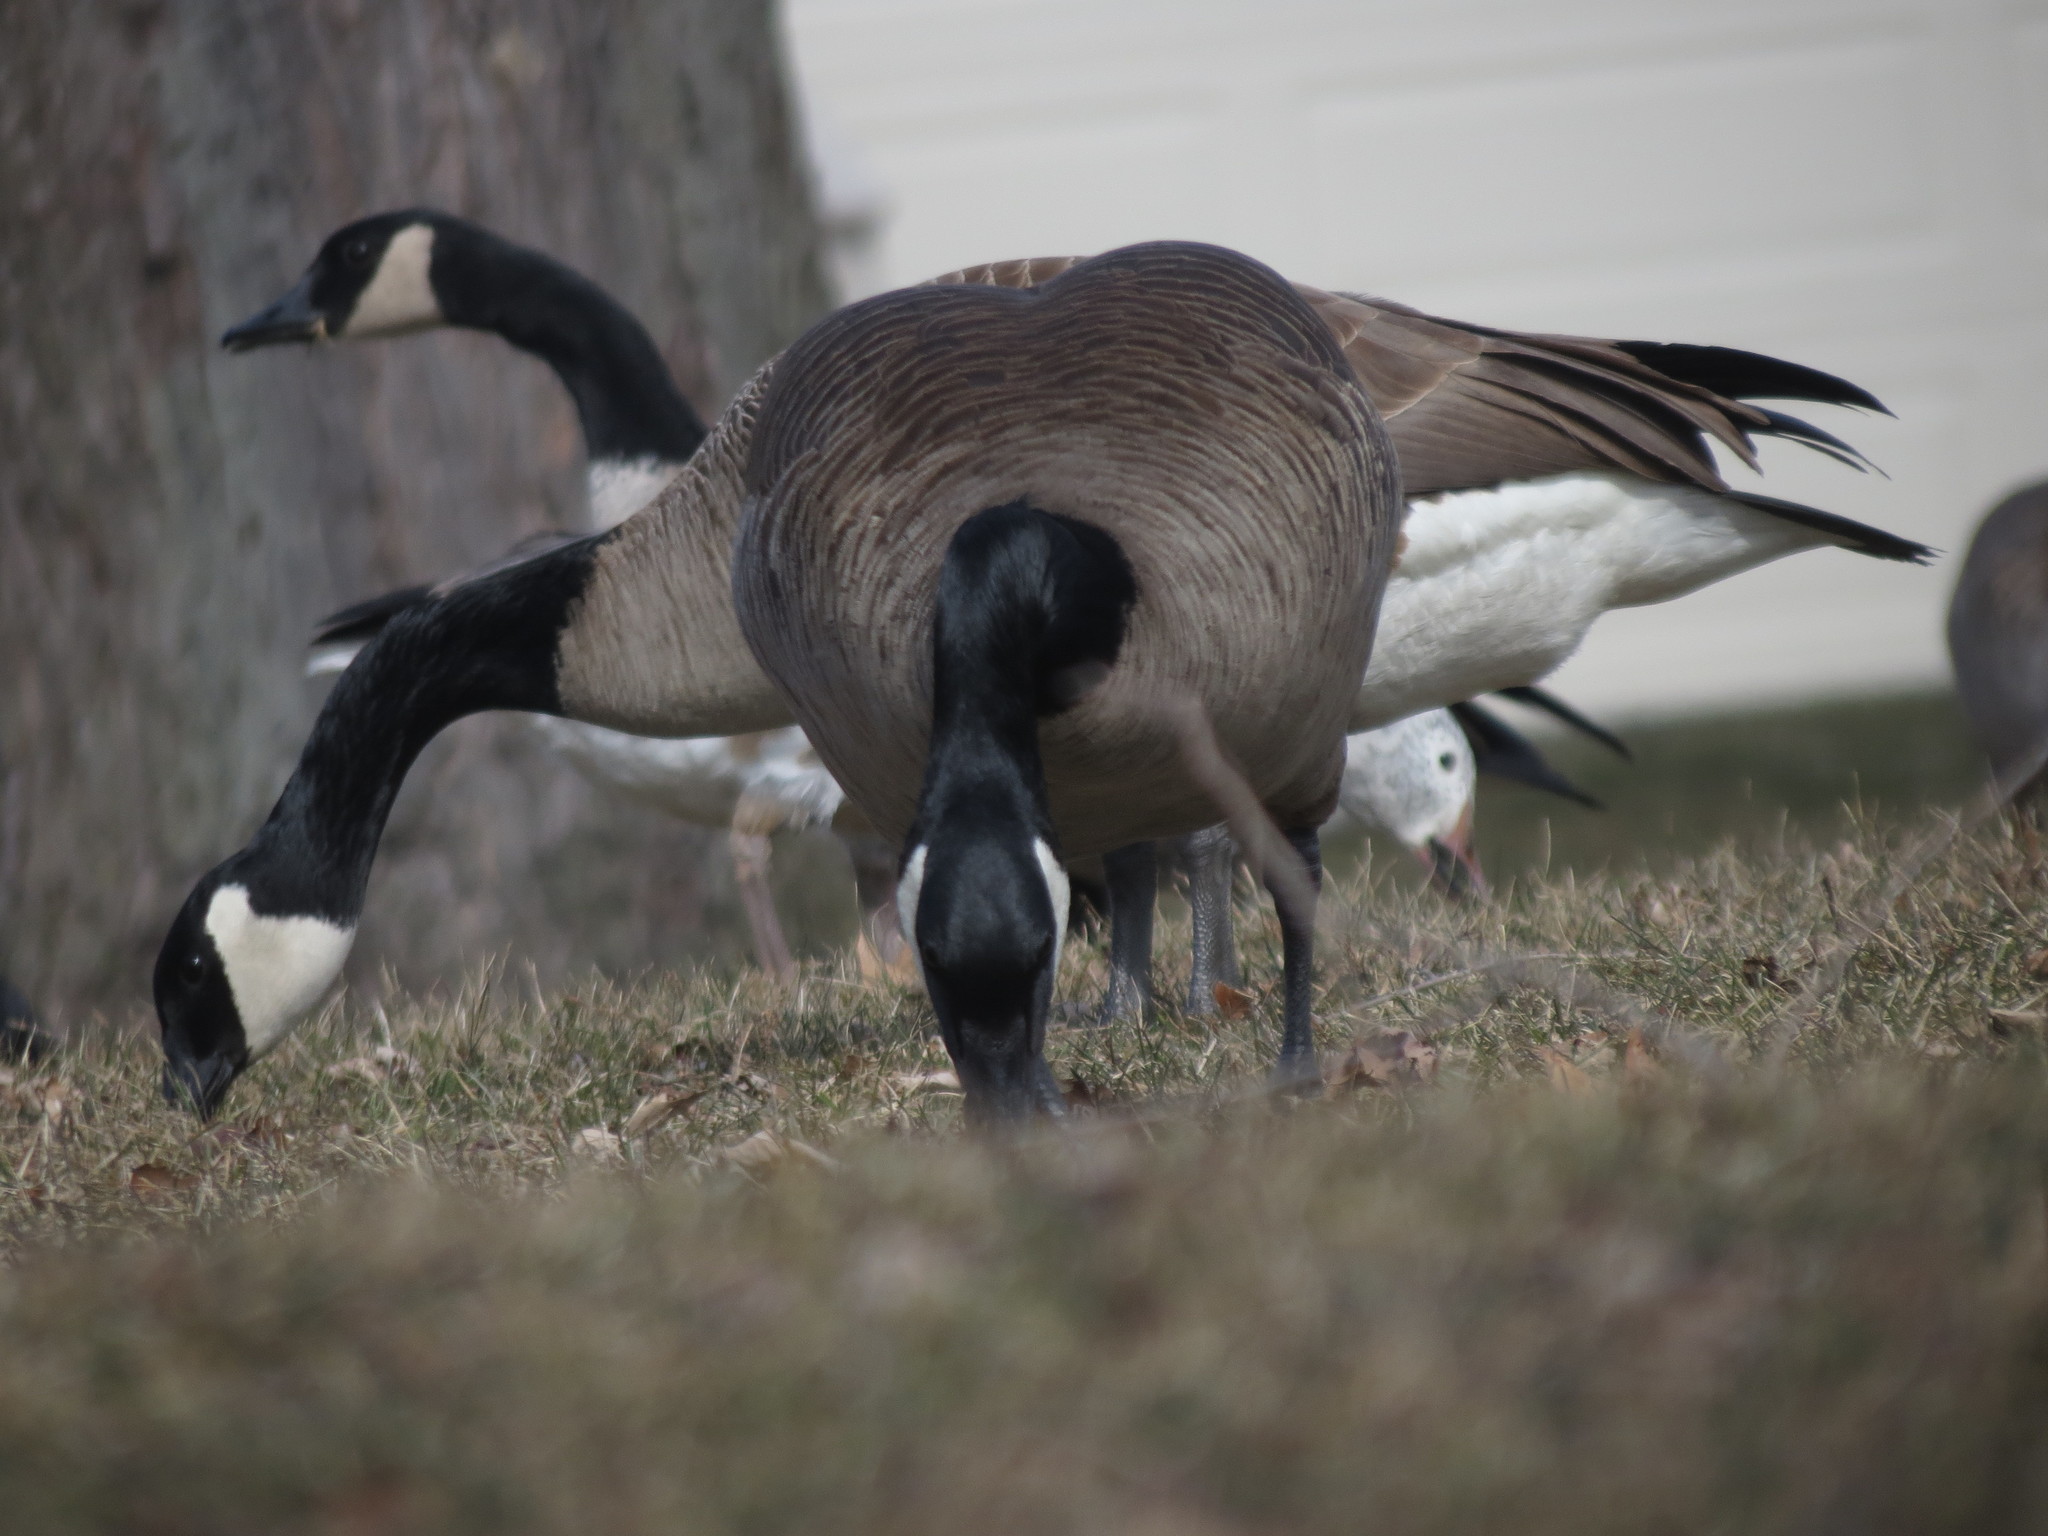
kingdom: Animalia
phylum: Chordata
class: Aves
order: Anseriformes
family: Anatidae
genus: Branta
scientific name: Branta canadensis
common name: Canada goose
